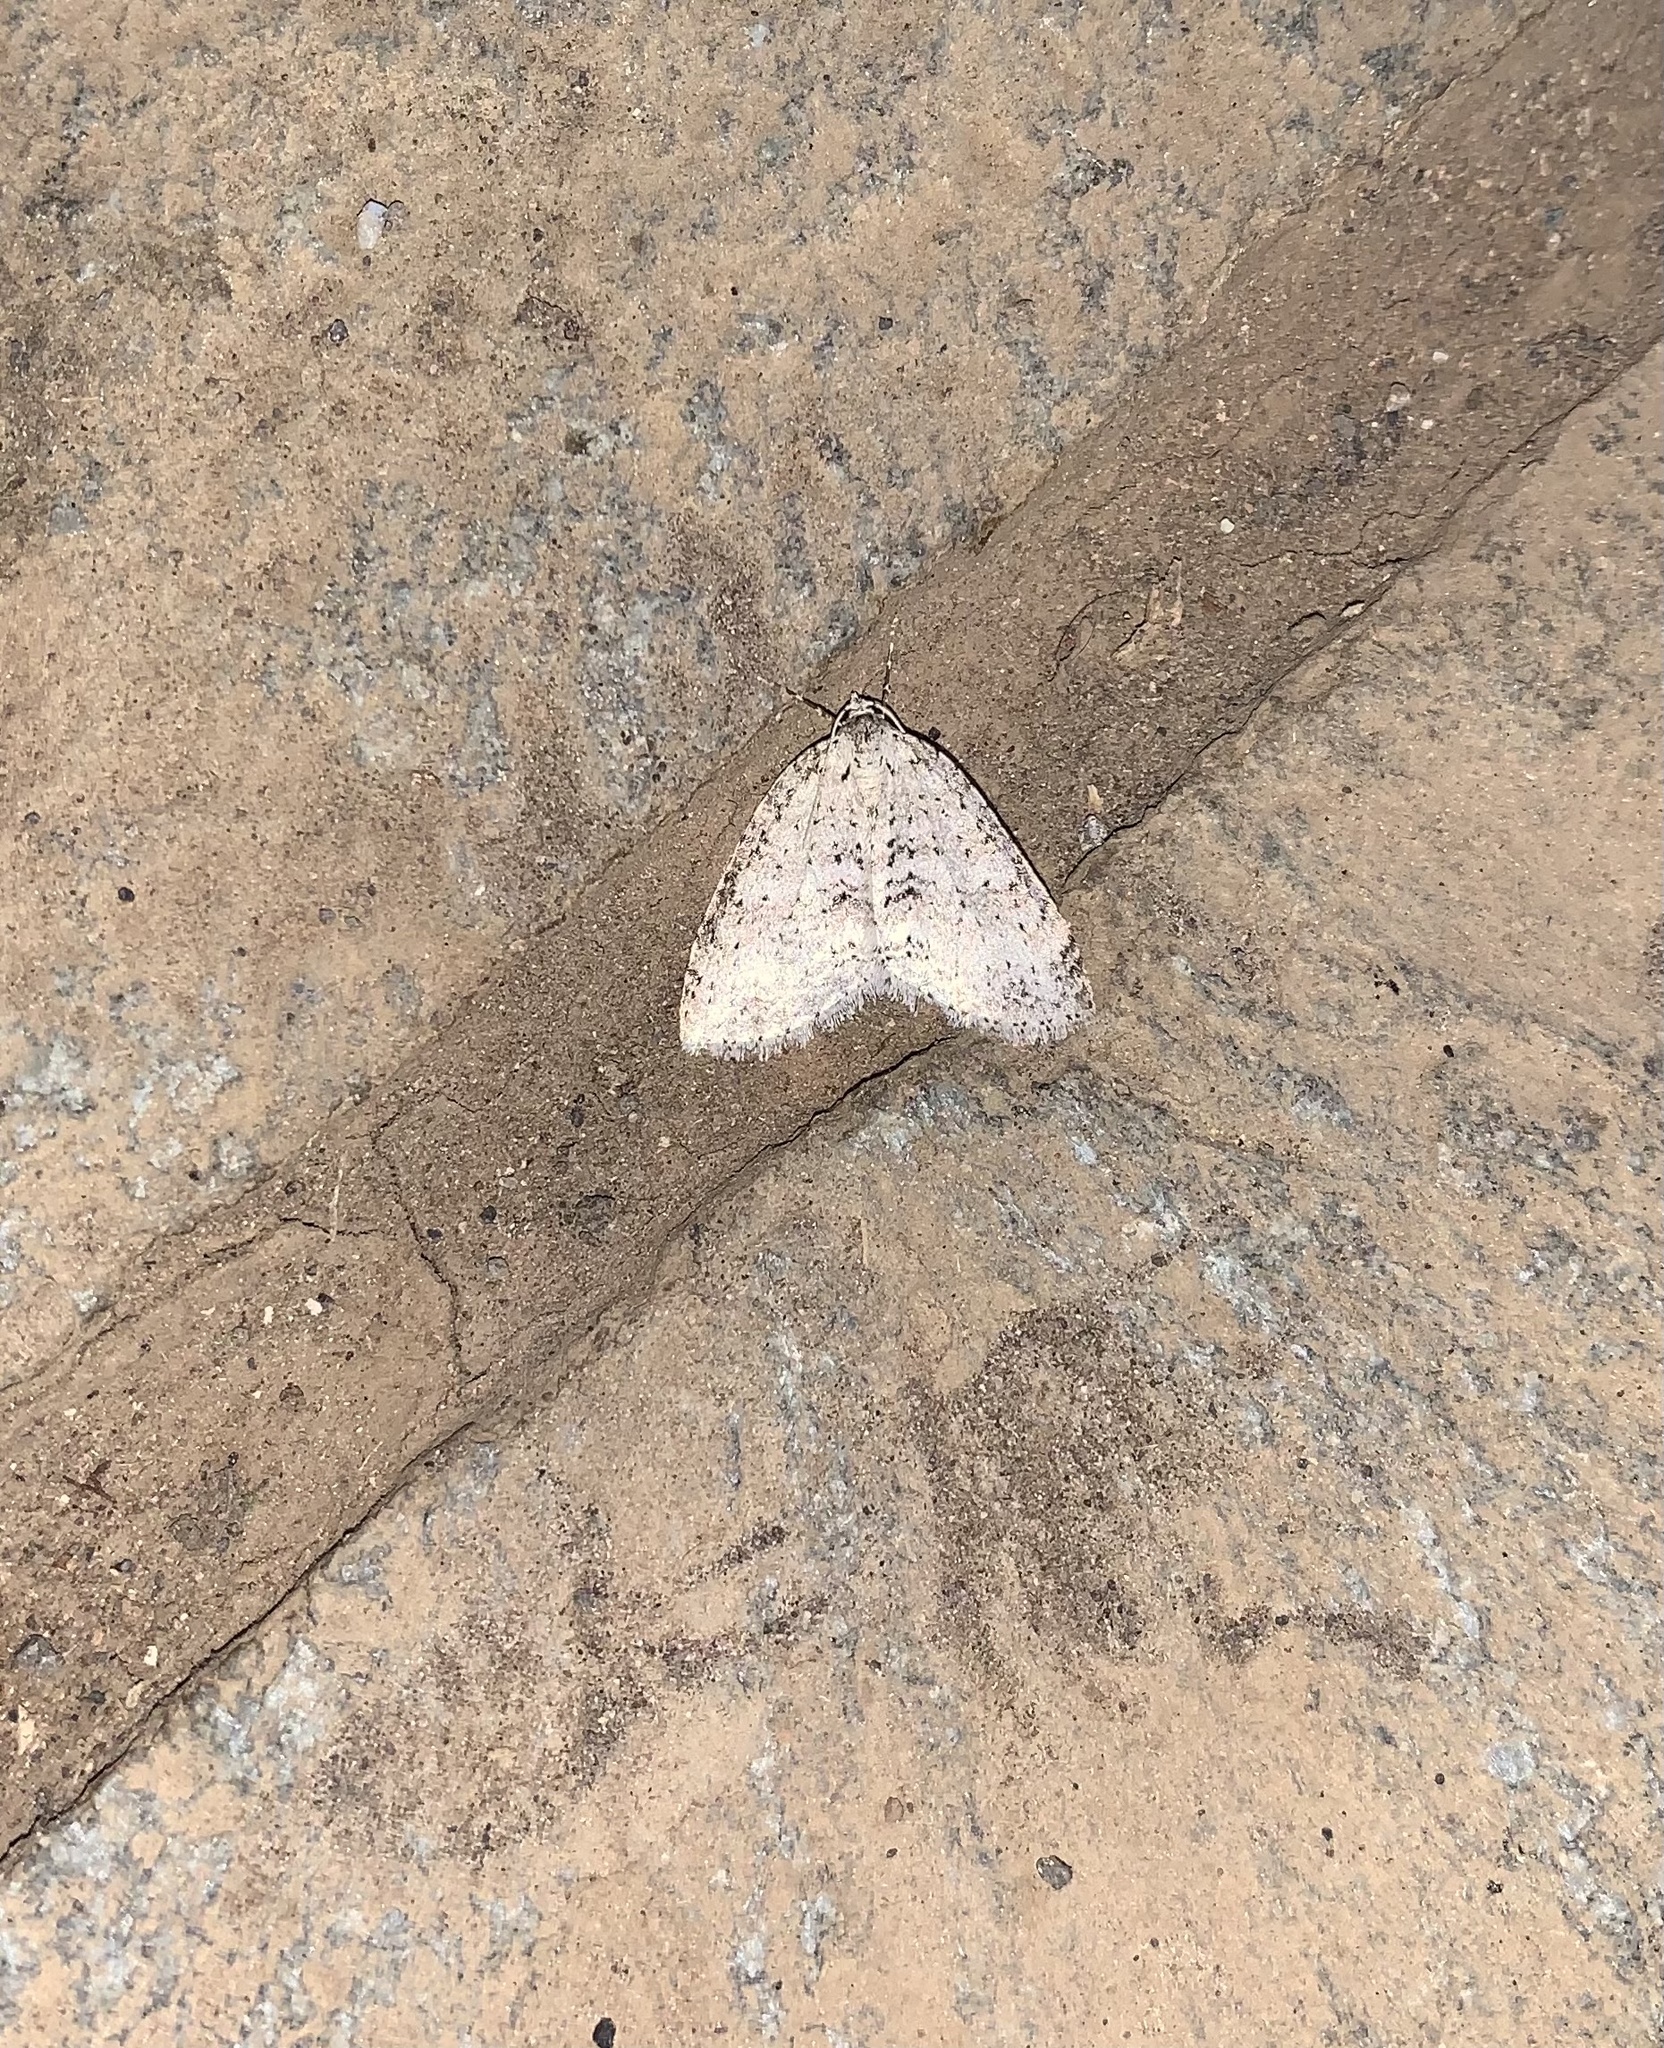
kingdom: Animalia
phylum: Arthropoda
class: Insecta
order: Lepidoptera
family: Geometridae
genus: Hoplosauris
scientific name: Hoplosauris
